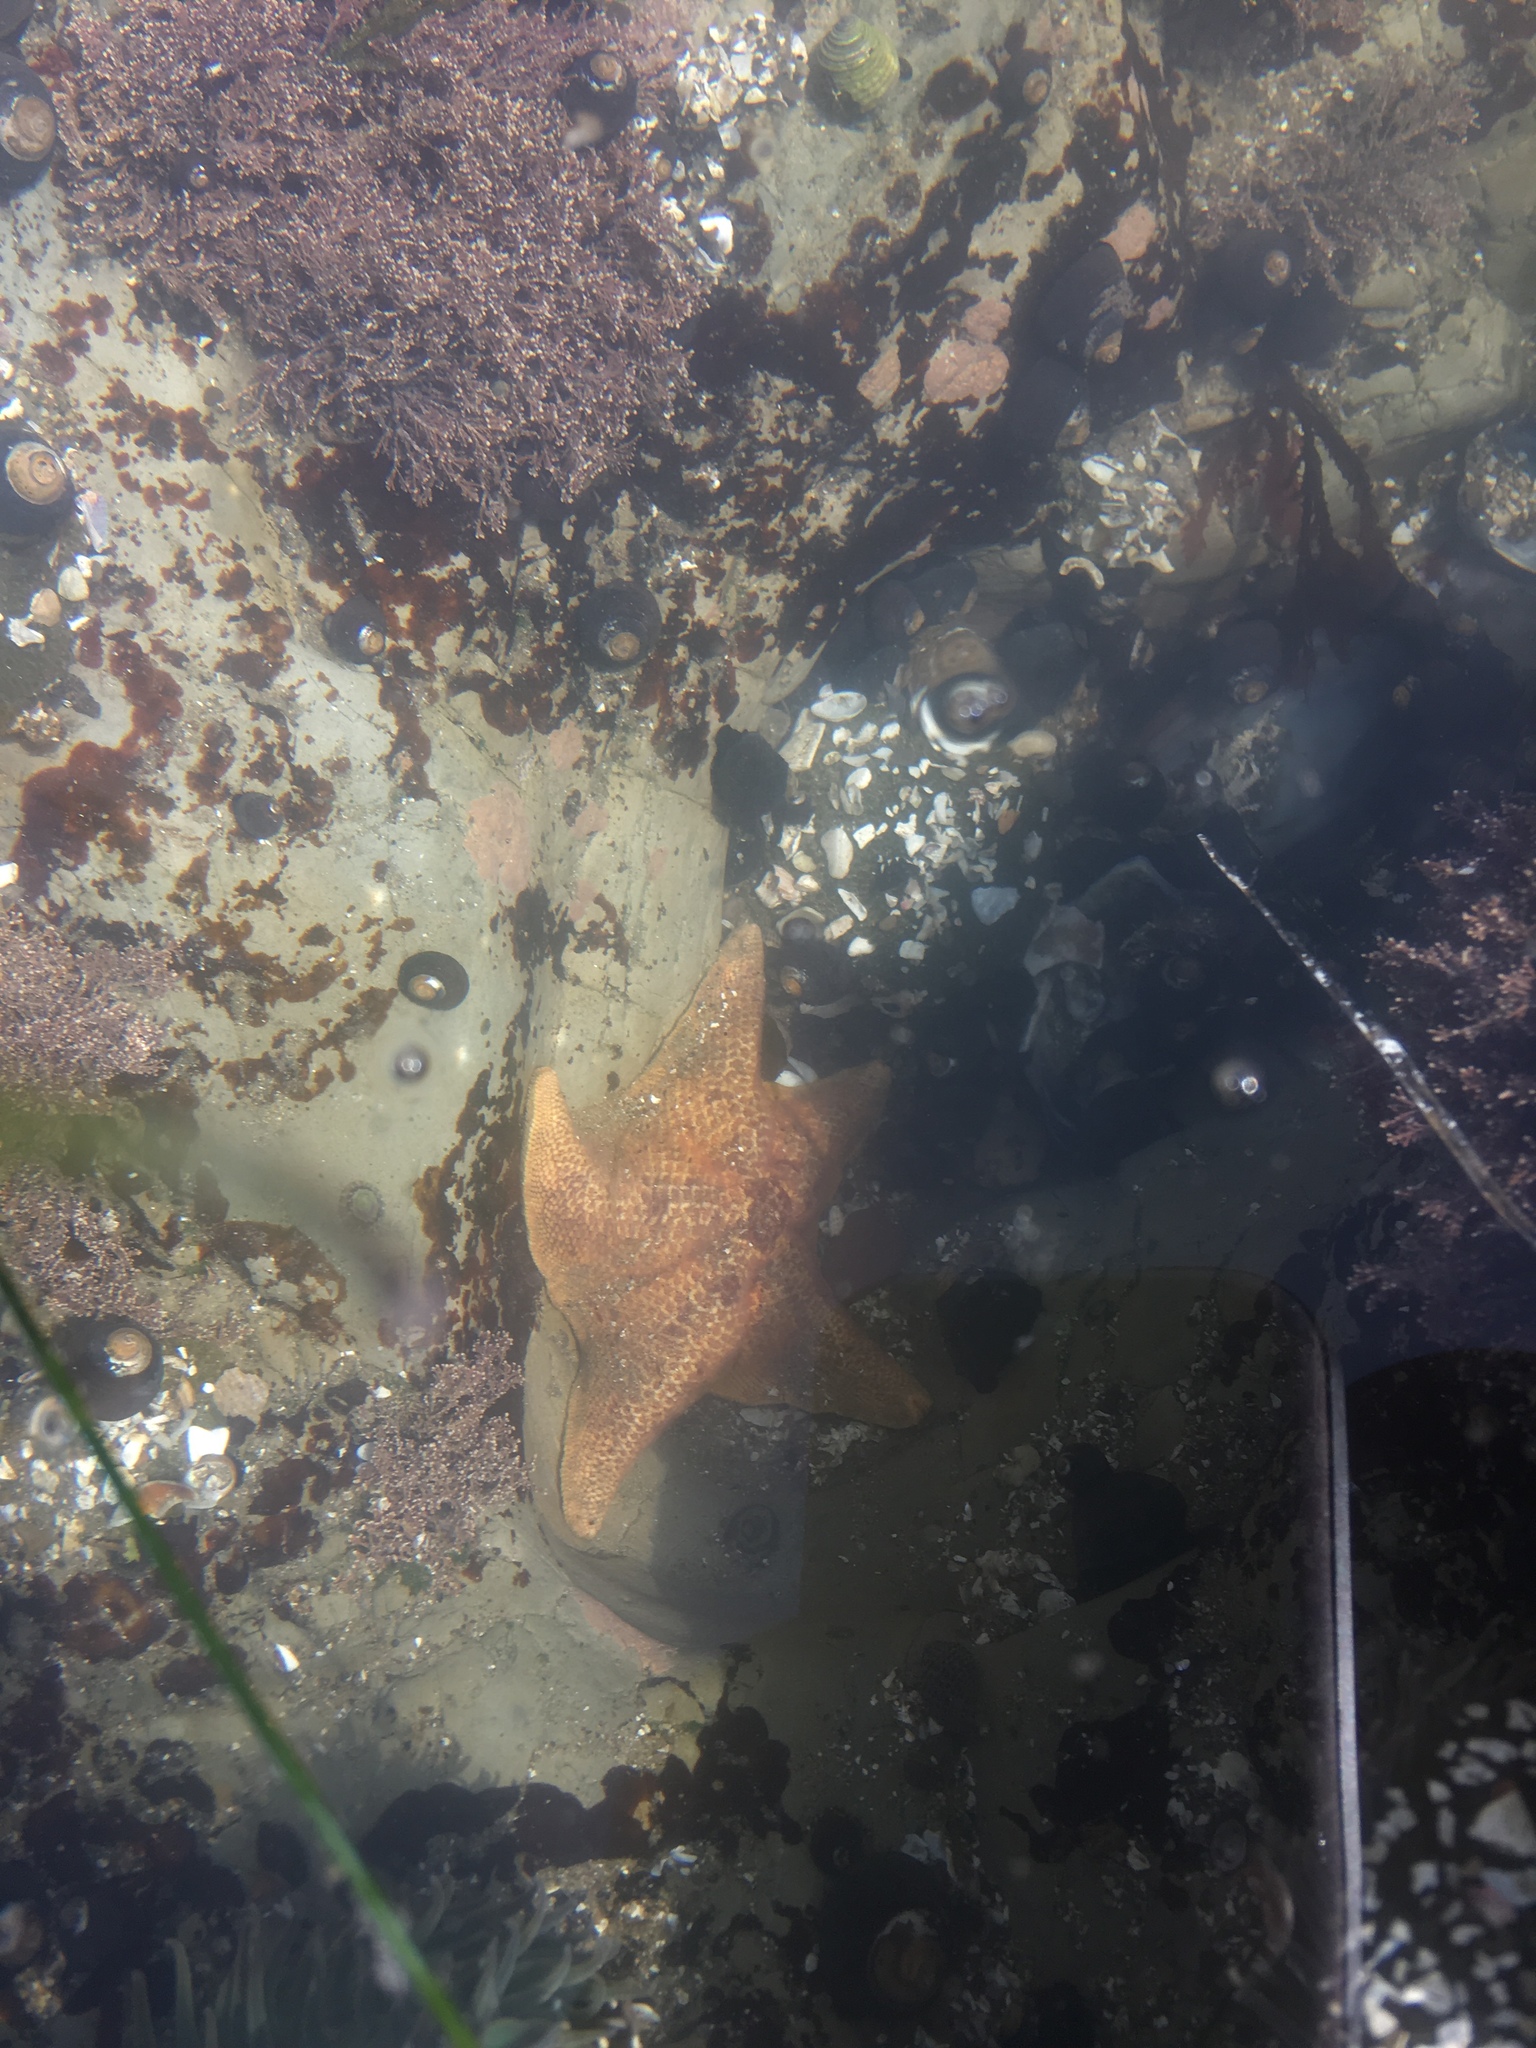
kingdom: Animalia
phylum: Echinodermata
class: Asteroidea
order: Valvatida
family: Asterinidae
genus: Patiria
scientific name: Patiria miniata
